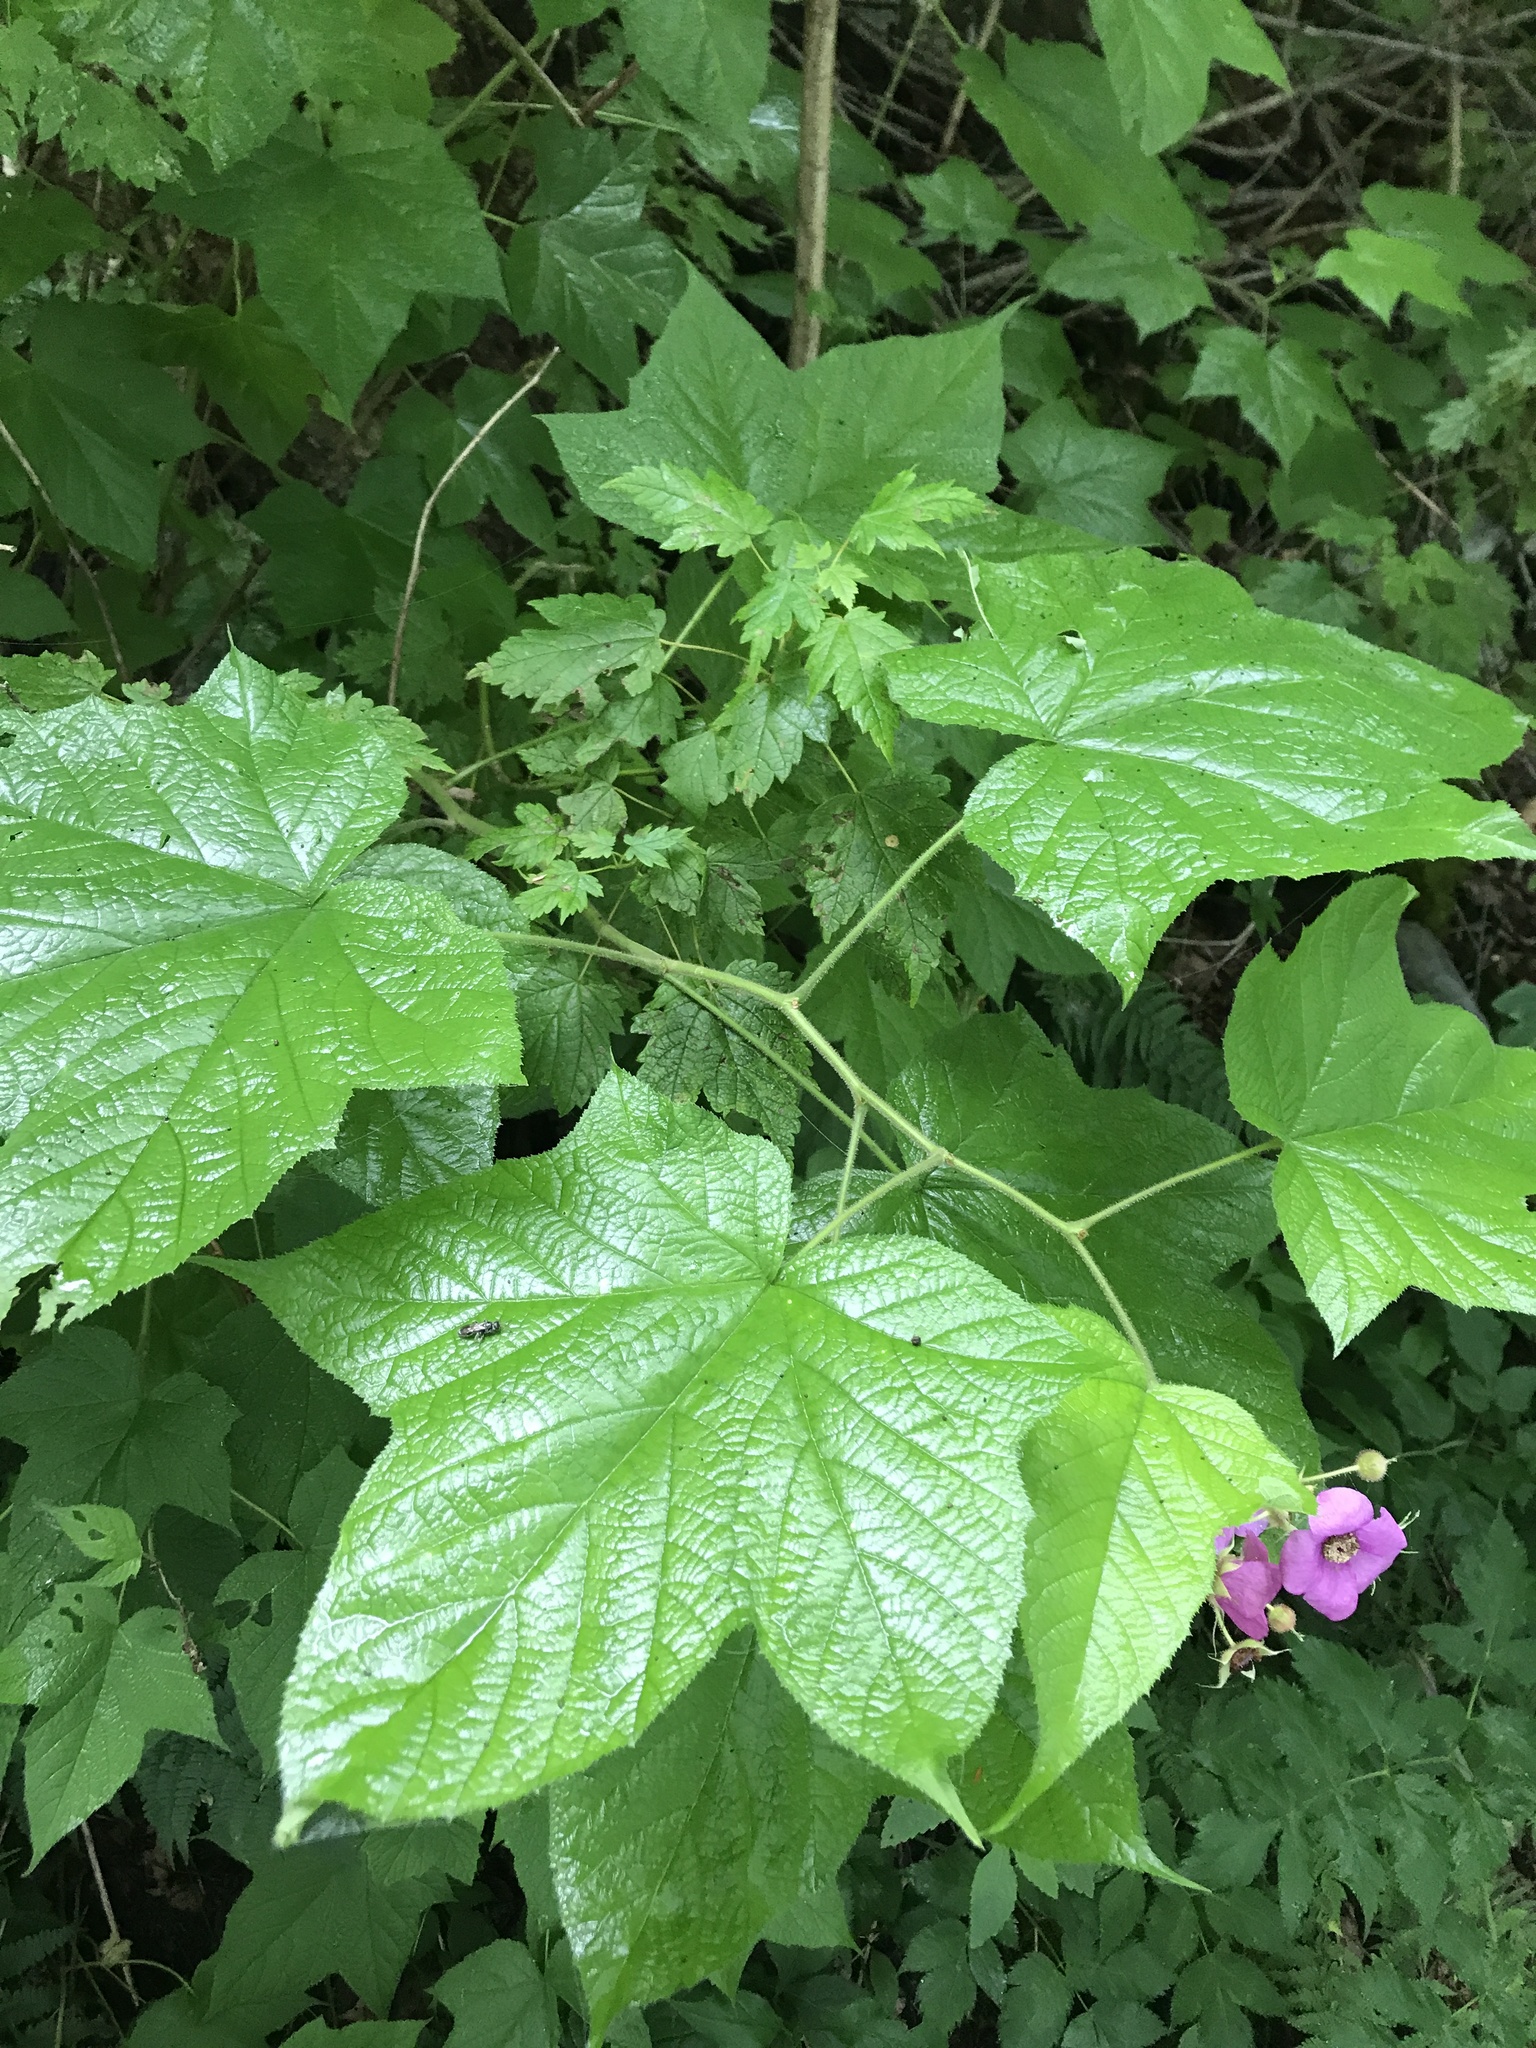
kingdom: Plantae
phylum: Tracheophyta
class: Magnoliopsida
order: Rosales
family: Rosaceae
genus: Rubus
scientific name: Rubus odoratus
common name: Purple-flowered raspberry
